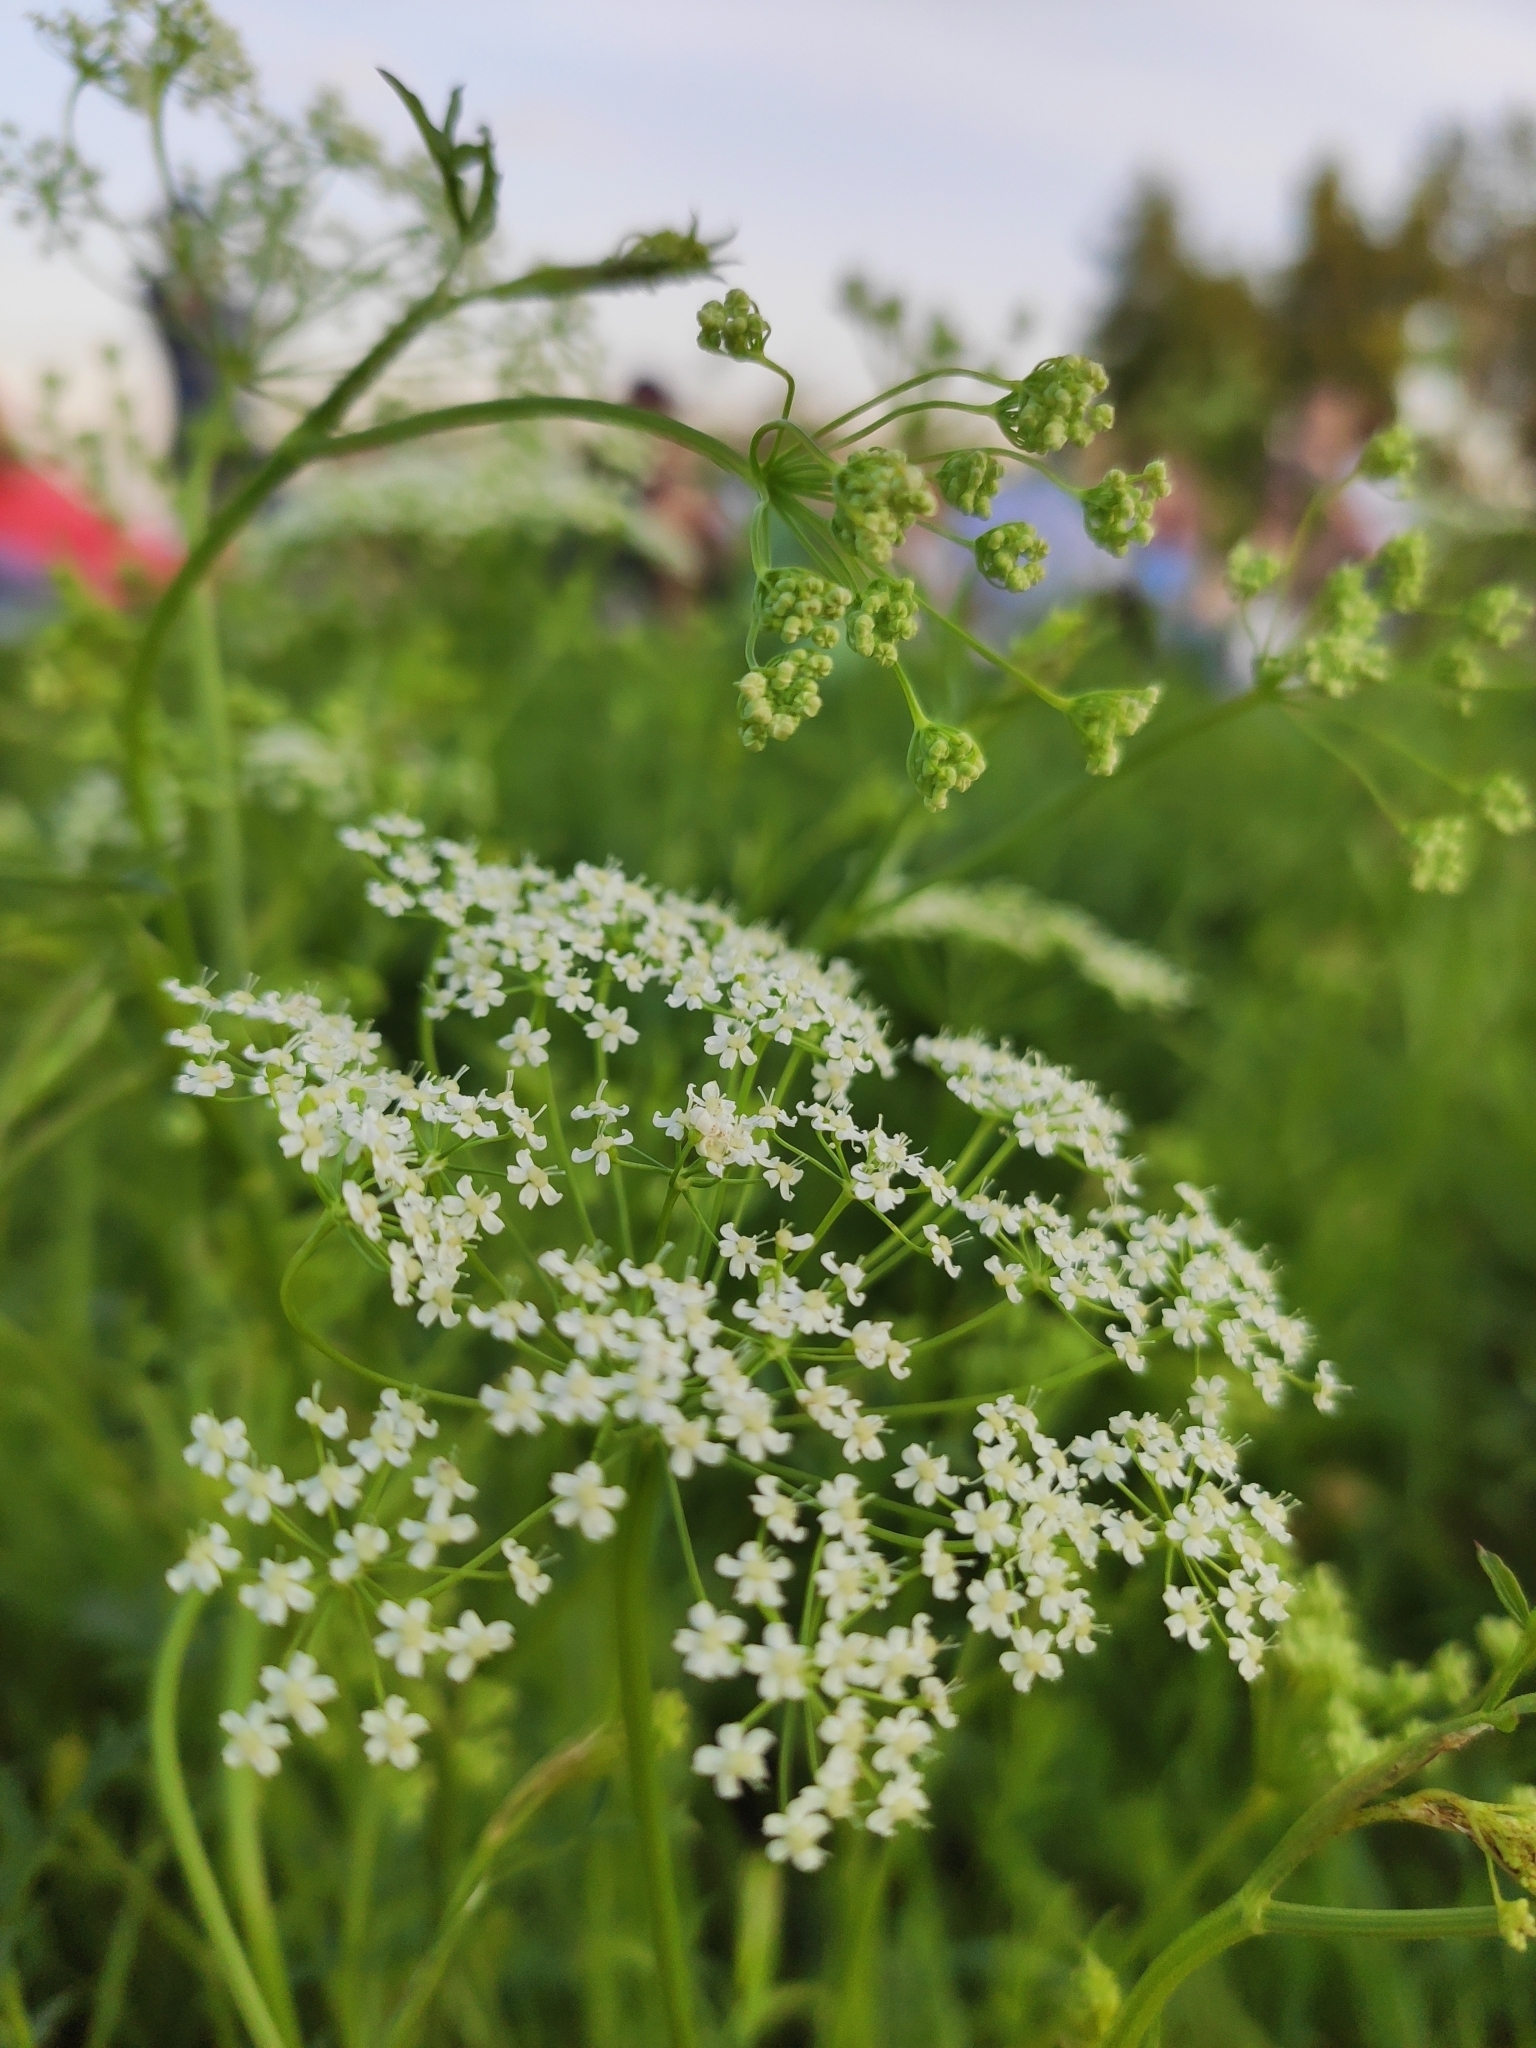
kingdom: Plantae
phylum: Tracheophyta
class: Magnoliopsida
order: Apiales
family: Apiaceae
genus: Pimpinella
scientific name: Pimpinella saxifraga
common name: Burnet-saxifrage
